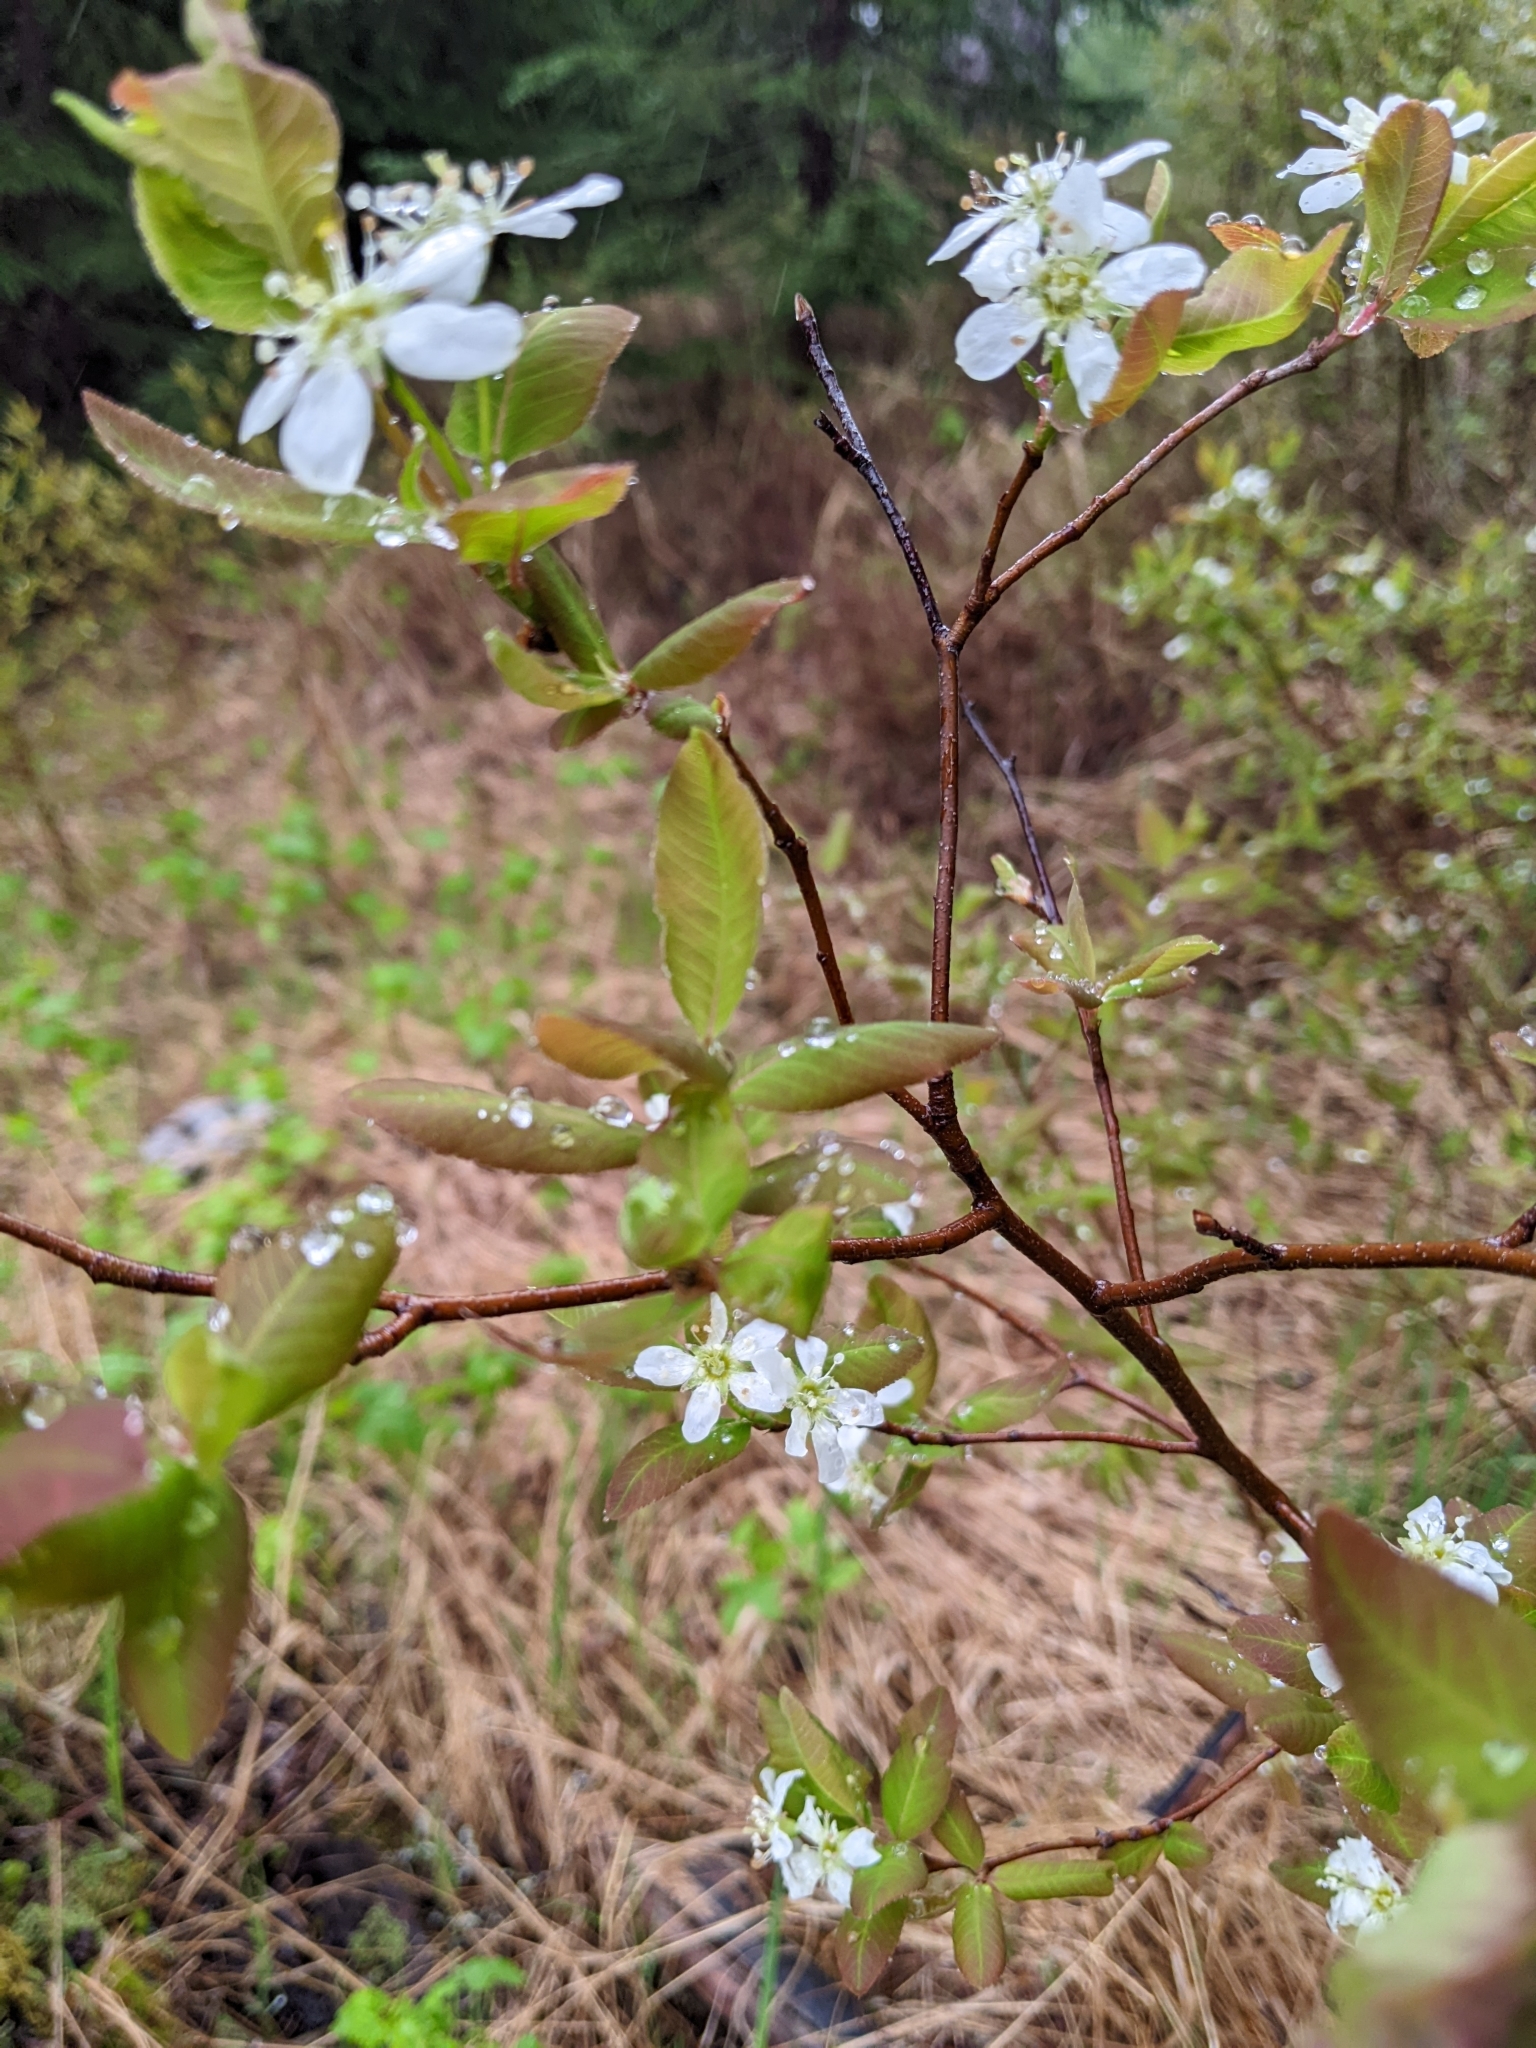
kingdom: Plantae
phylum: Tracheophyta
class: Magnoliopsida
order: Rosales
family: Rosaceae
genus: Amelanchier
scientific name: Amelanchier bartramiana
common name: Mountain serviceberry
